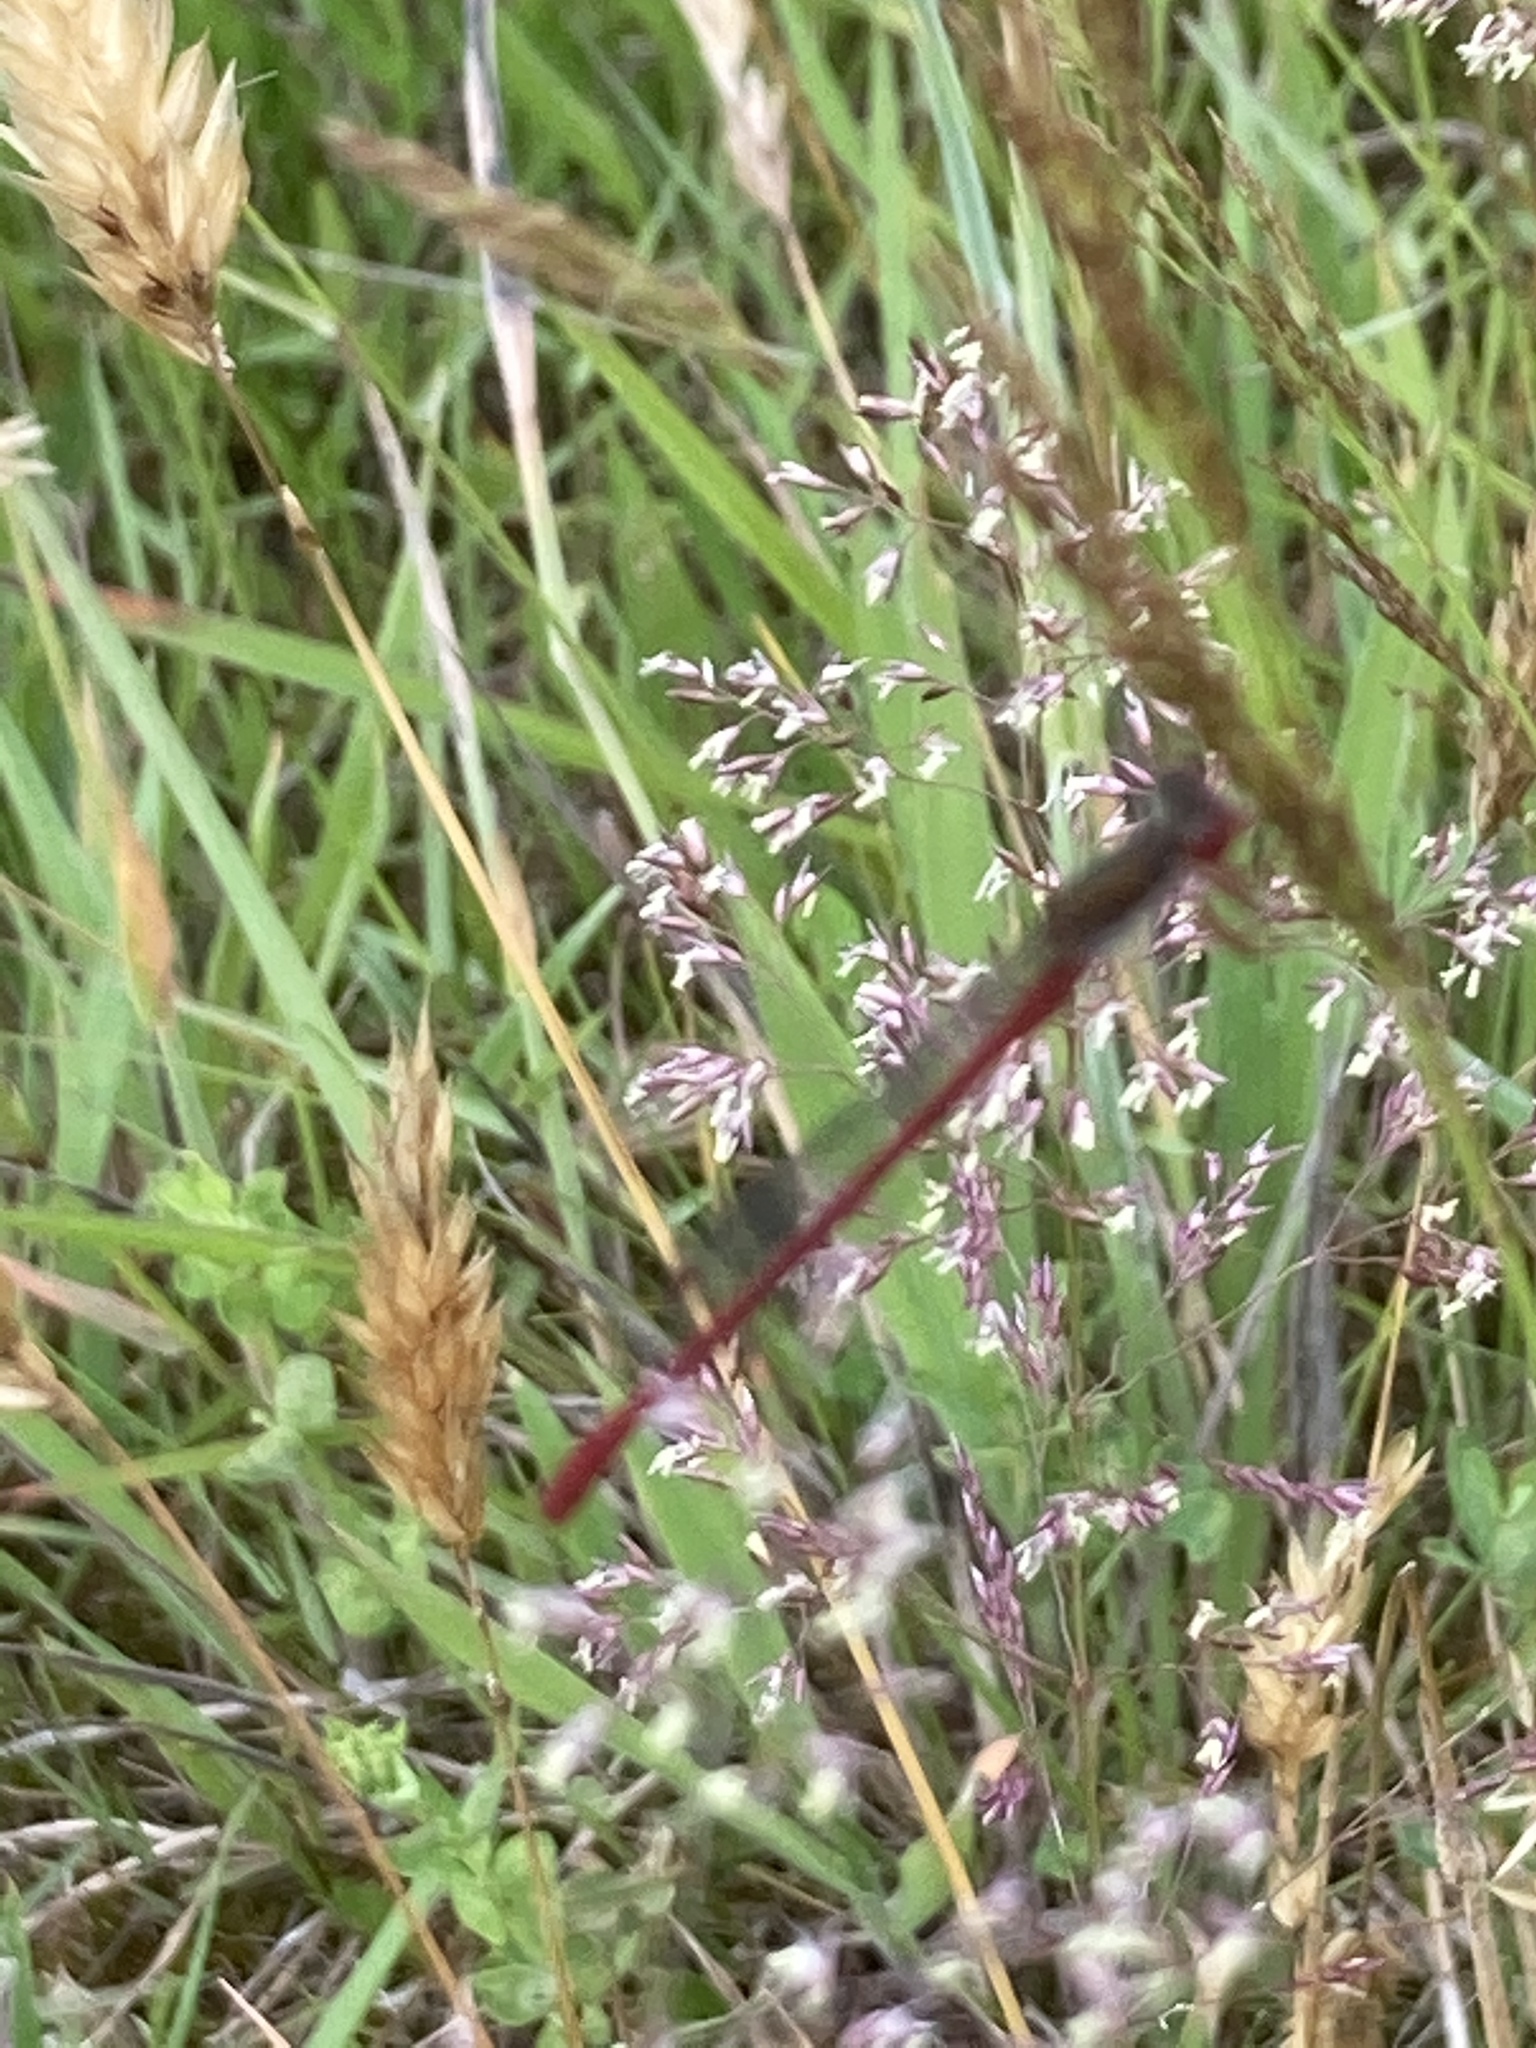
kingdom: Animalia
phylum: Arthropoda
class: Insecta
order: Odonata
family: Coenagrionidae
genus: Ceriagrion
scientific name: Ceriagrion tenellum
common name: Small red damselfly
